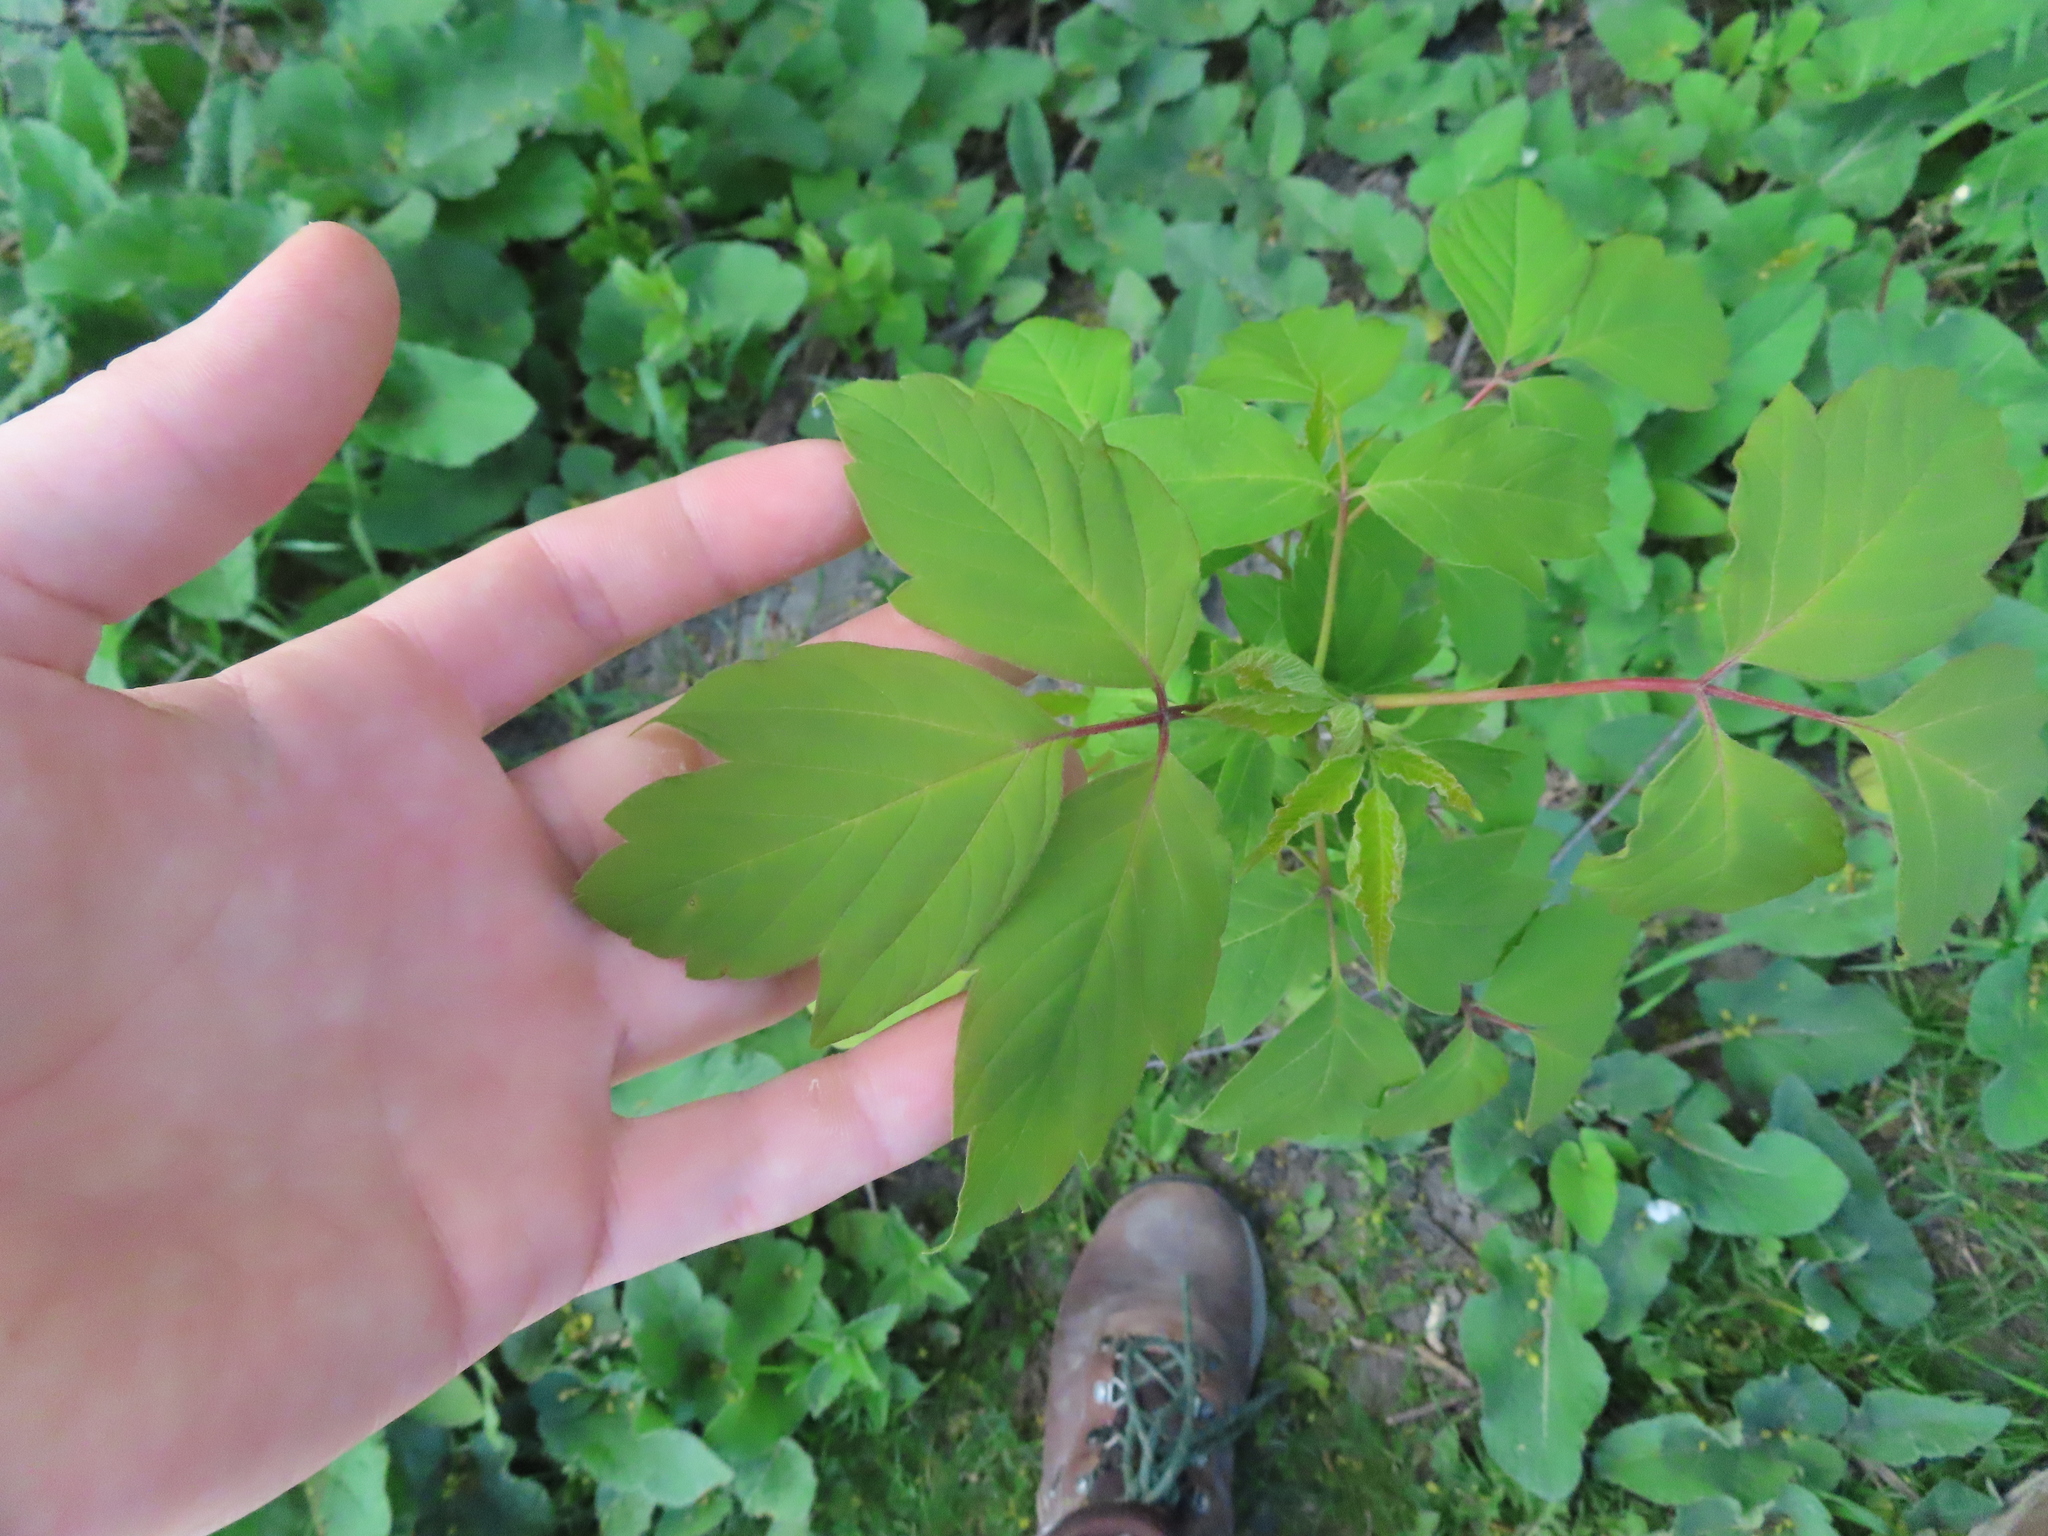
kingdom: Plantae
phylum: Tracheophyta
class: Magnoliopsida
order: Sapindales
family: Sapindaceae
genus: Acer
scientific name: Acer negundo
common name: Ashleaf maple
